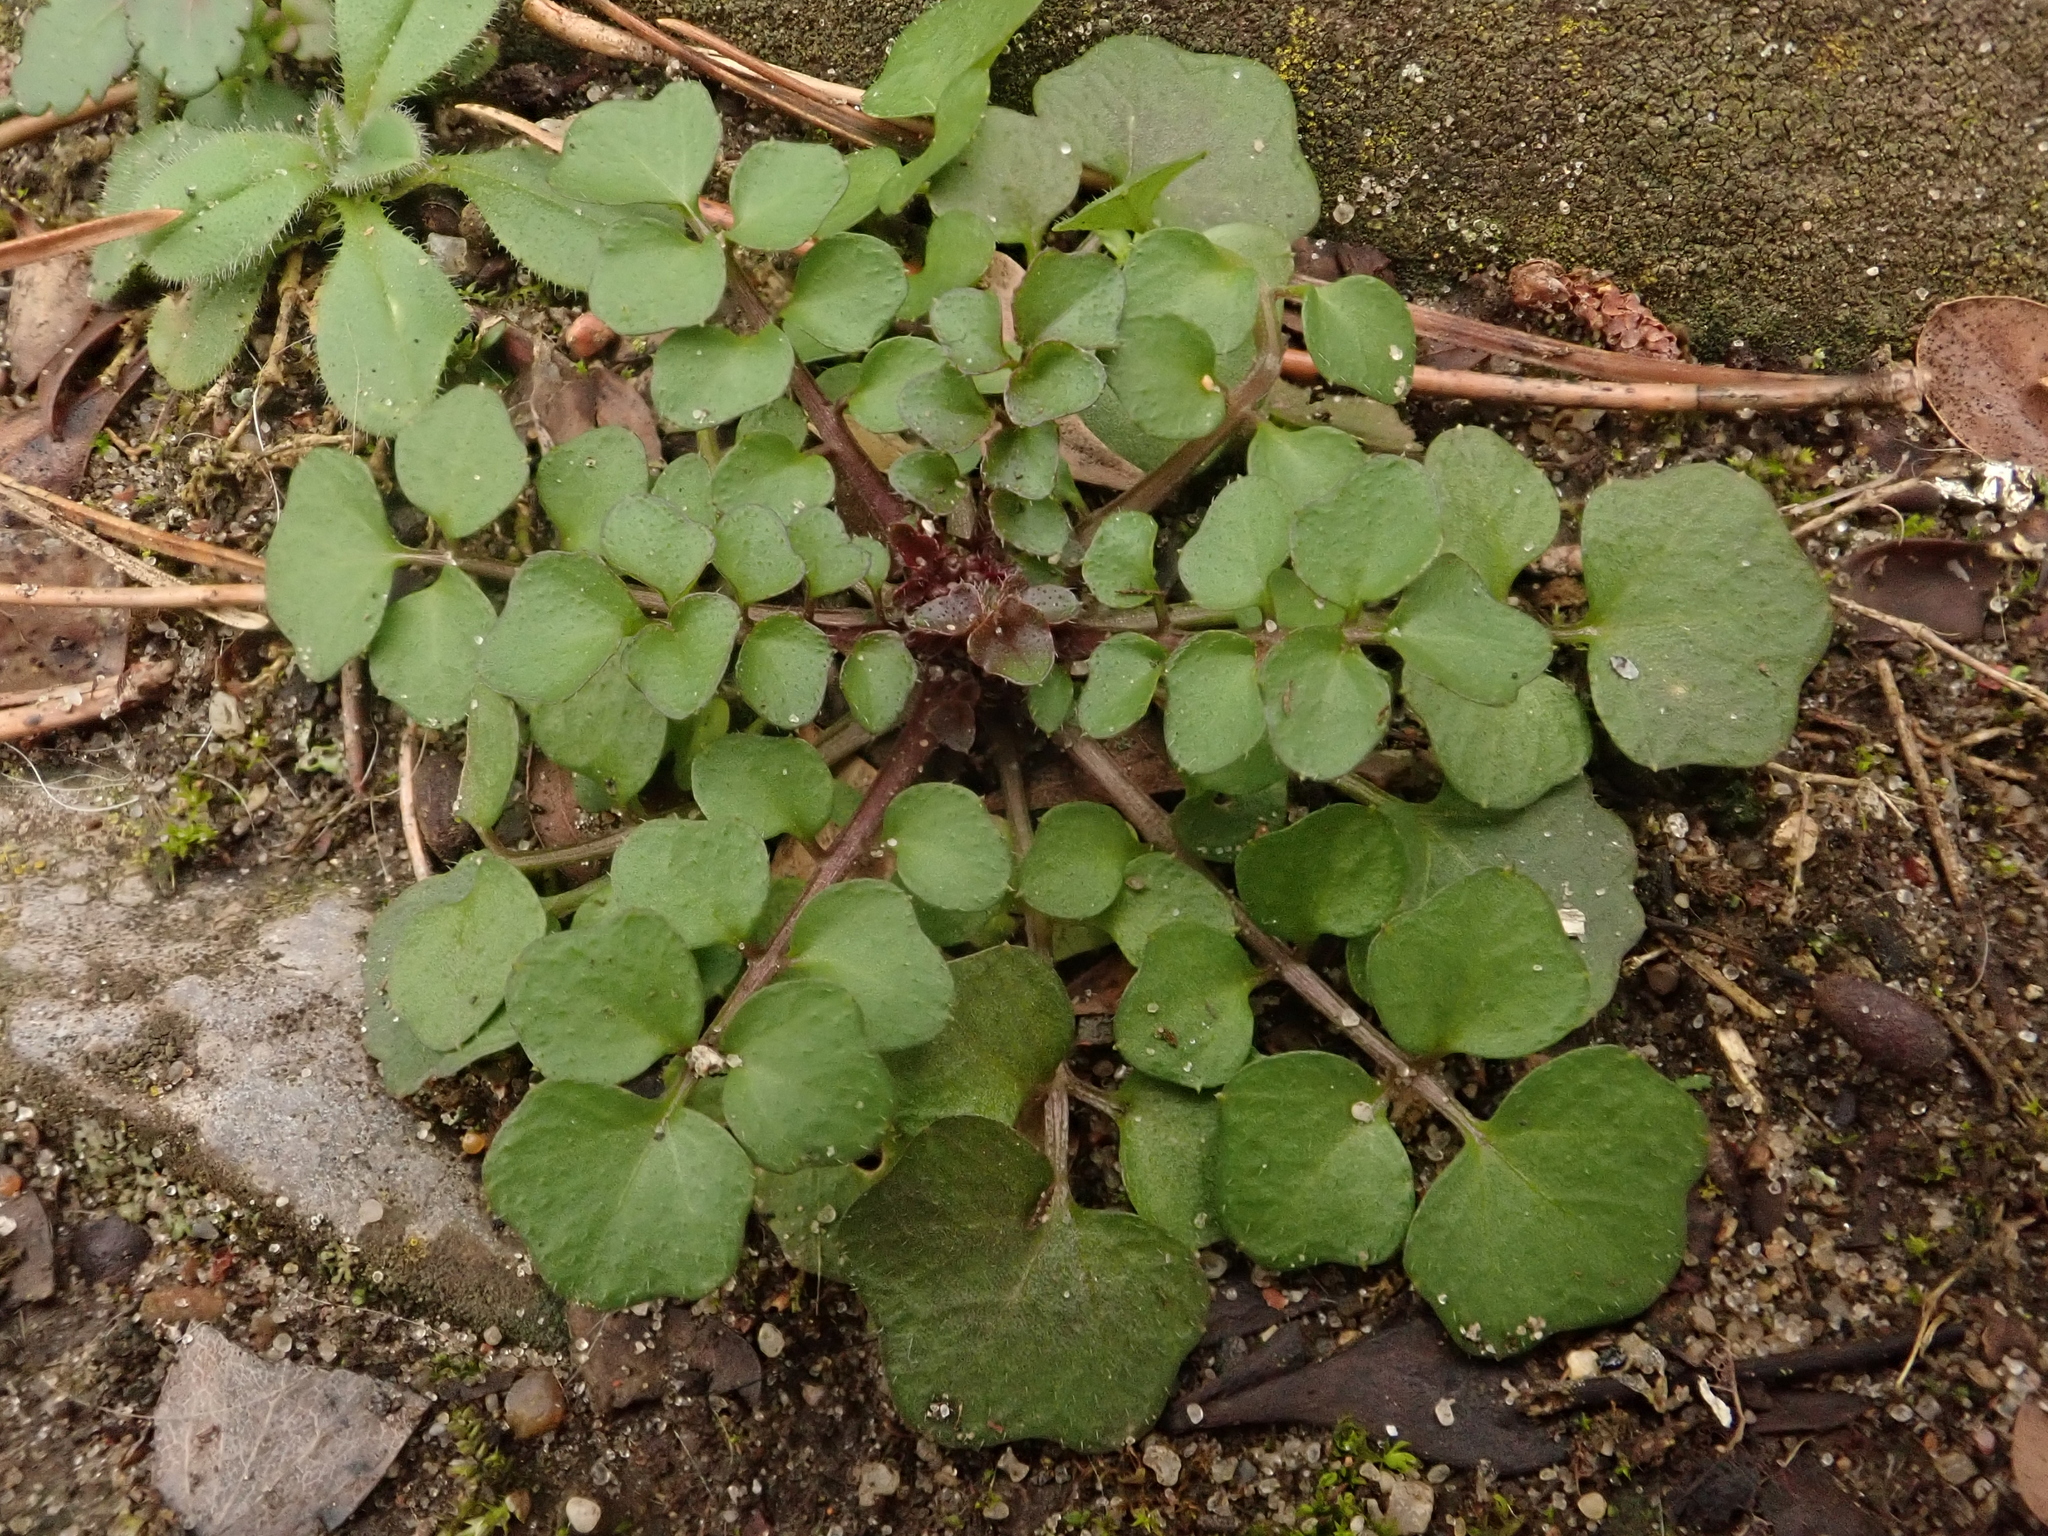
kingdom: Plantae
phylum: Tracheophyta
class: Magnoliopsida
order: Brassicales
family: Brassicaceae
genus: Cardamine
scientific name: Cardamine hirsuta
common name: Hairy bittercress
